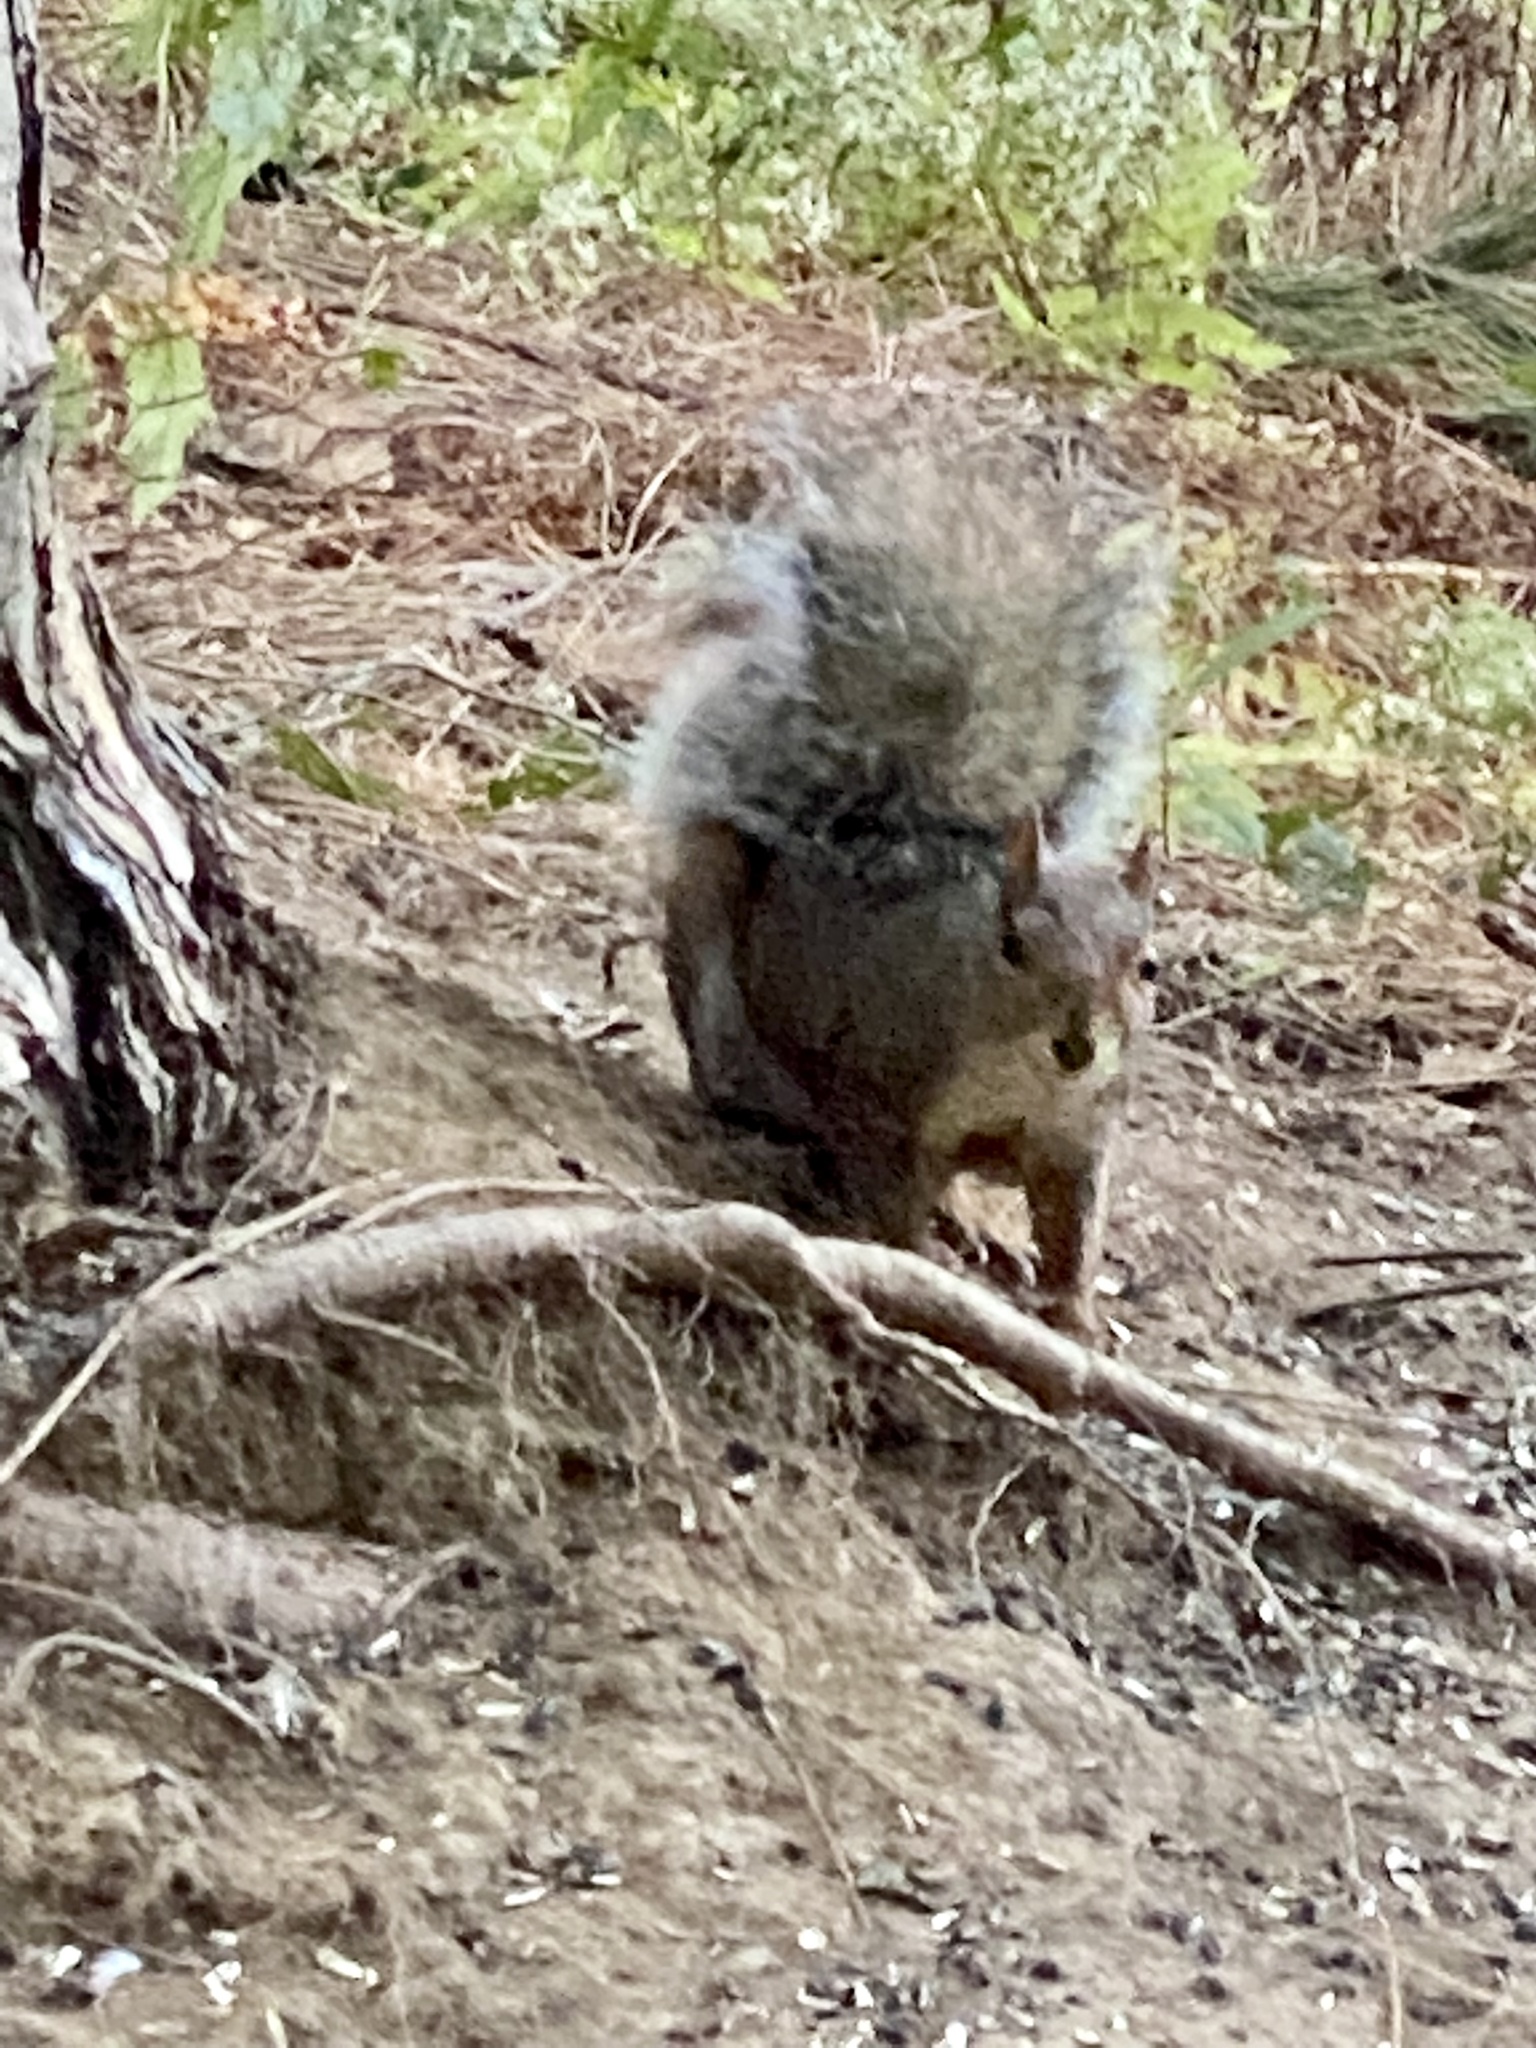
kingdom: Animalia
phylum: Chordata
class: Mammalia
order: Rodentia
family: Sciuridae
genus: Sciurus
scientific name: Sciurus carolinensis
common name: Eastern gray squirrel
